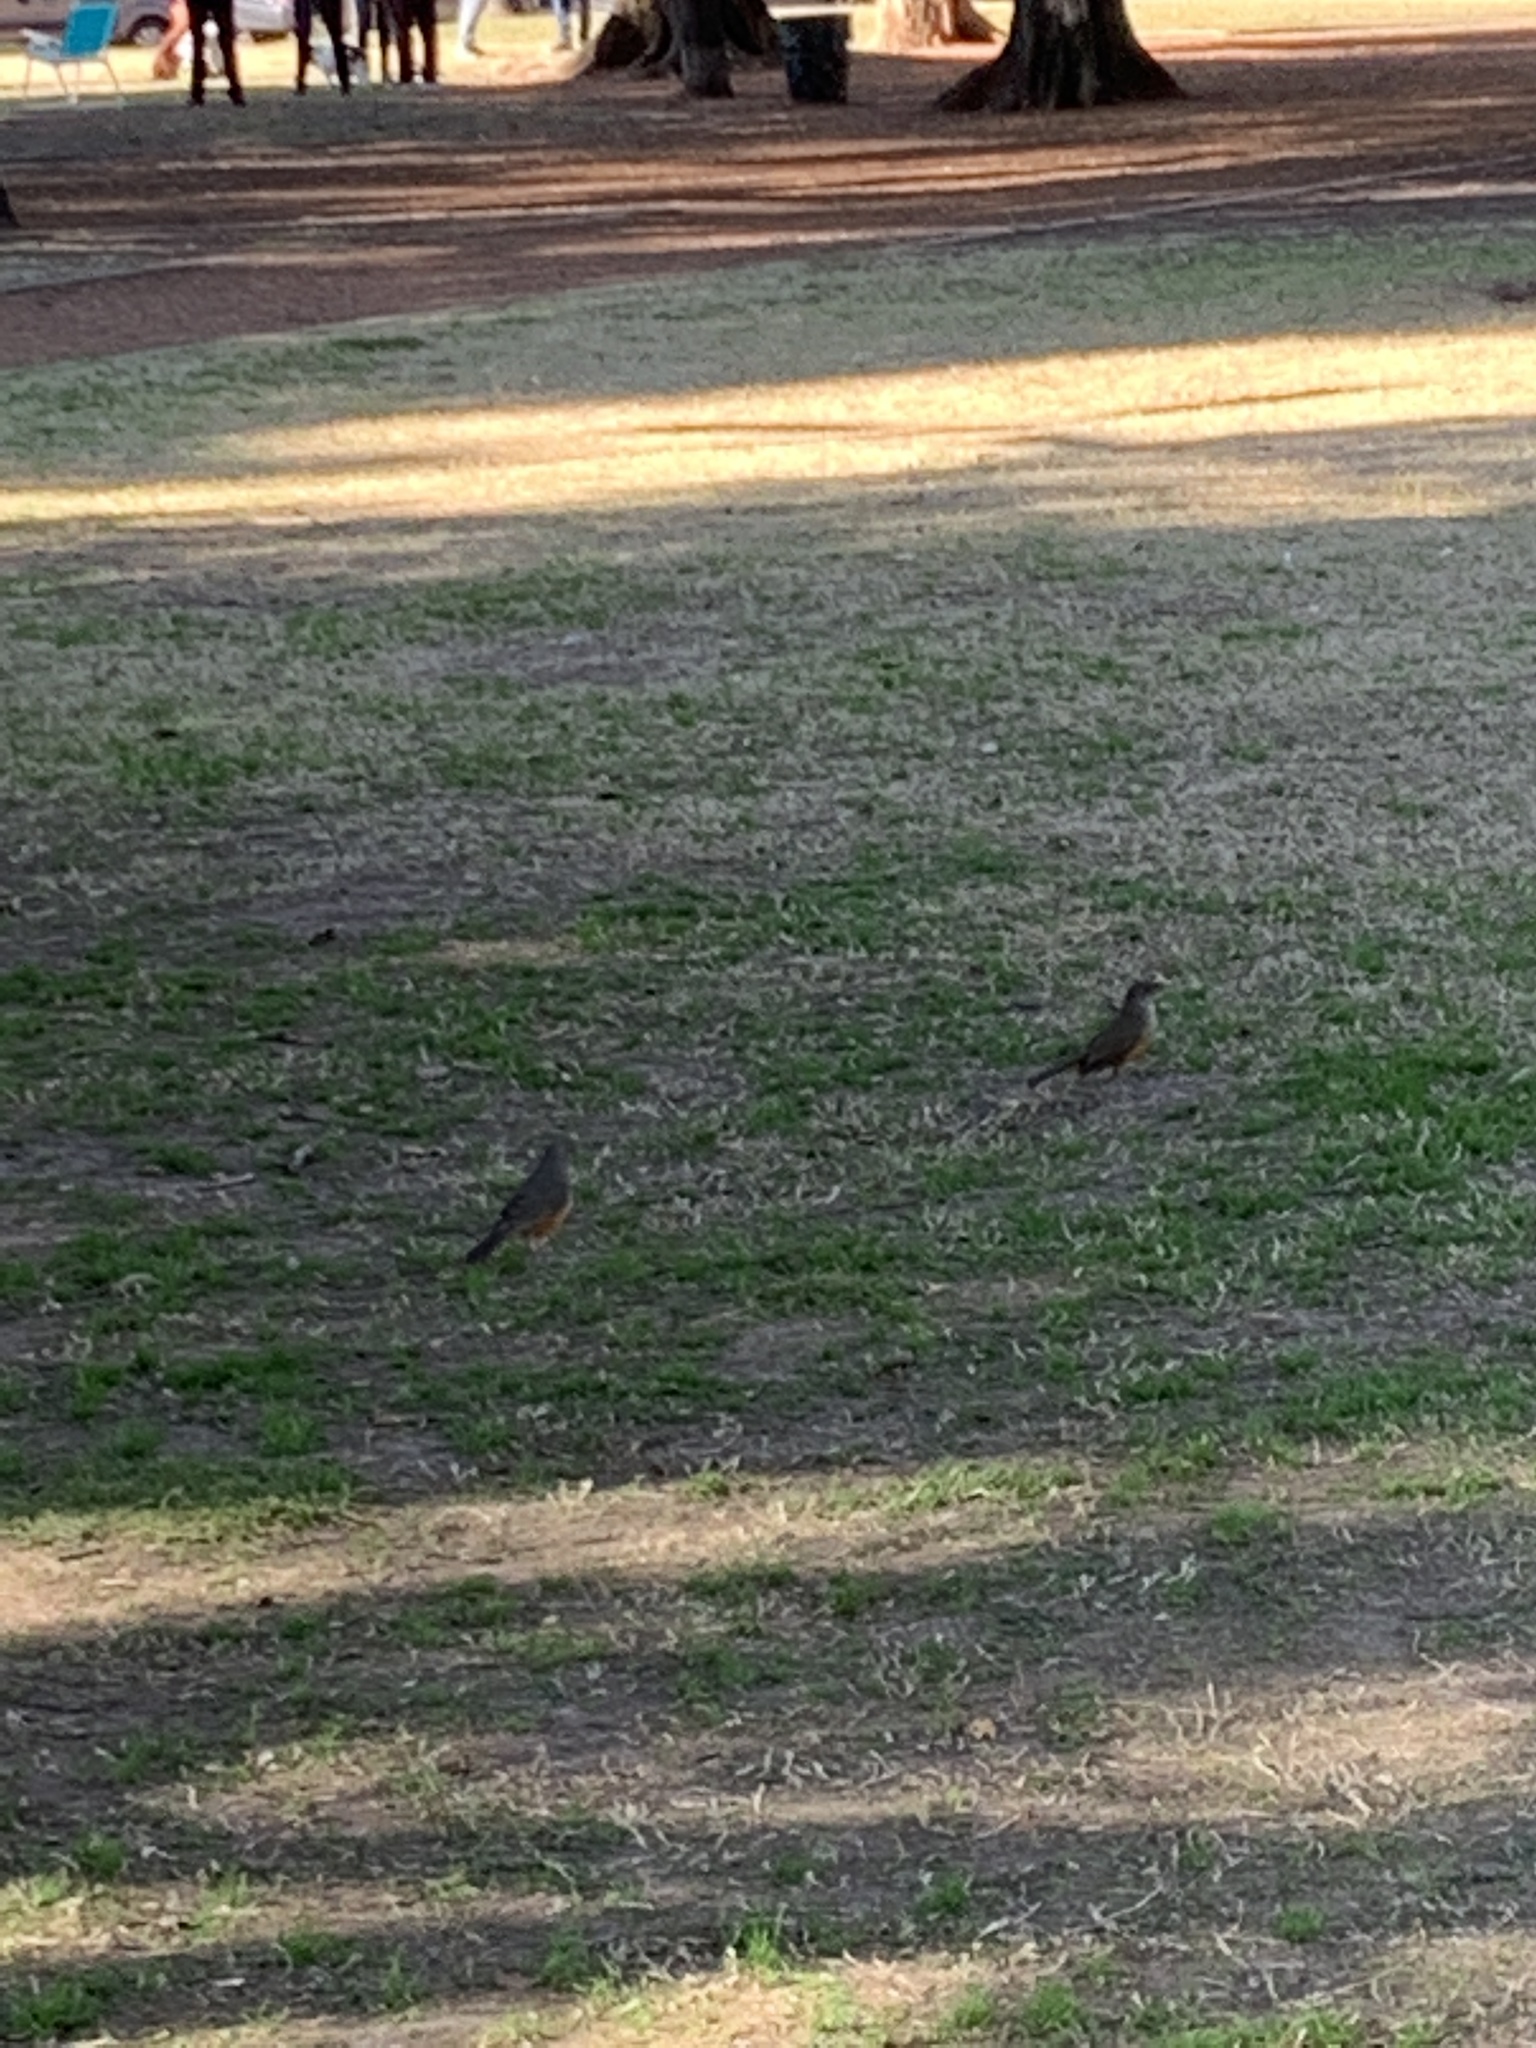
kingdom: Animalia
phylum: Chordata
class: Aves
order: Passeriformes
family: Turdidae
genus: Turdus
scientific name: Turdus rufiventris
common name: Rufous-bellied thrush
